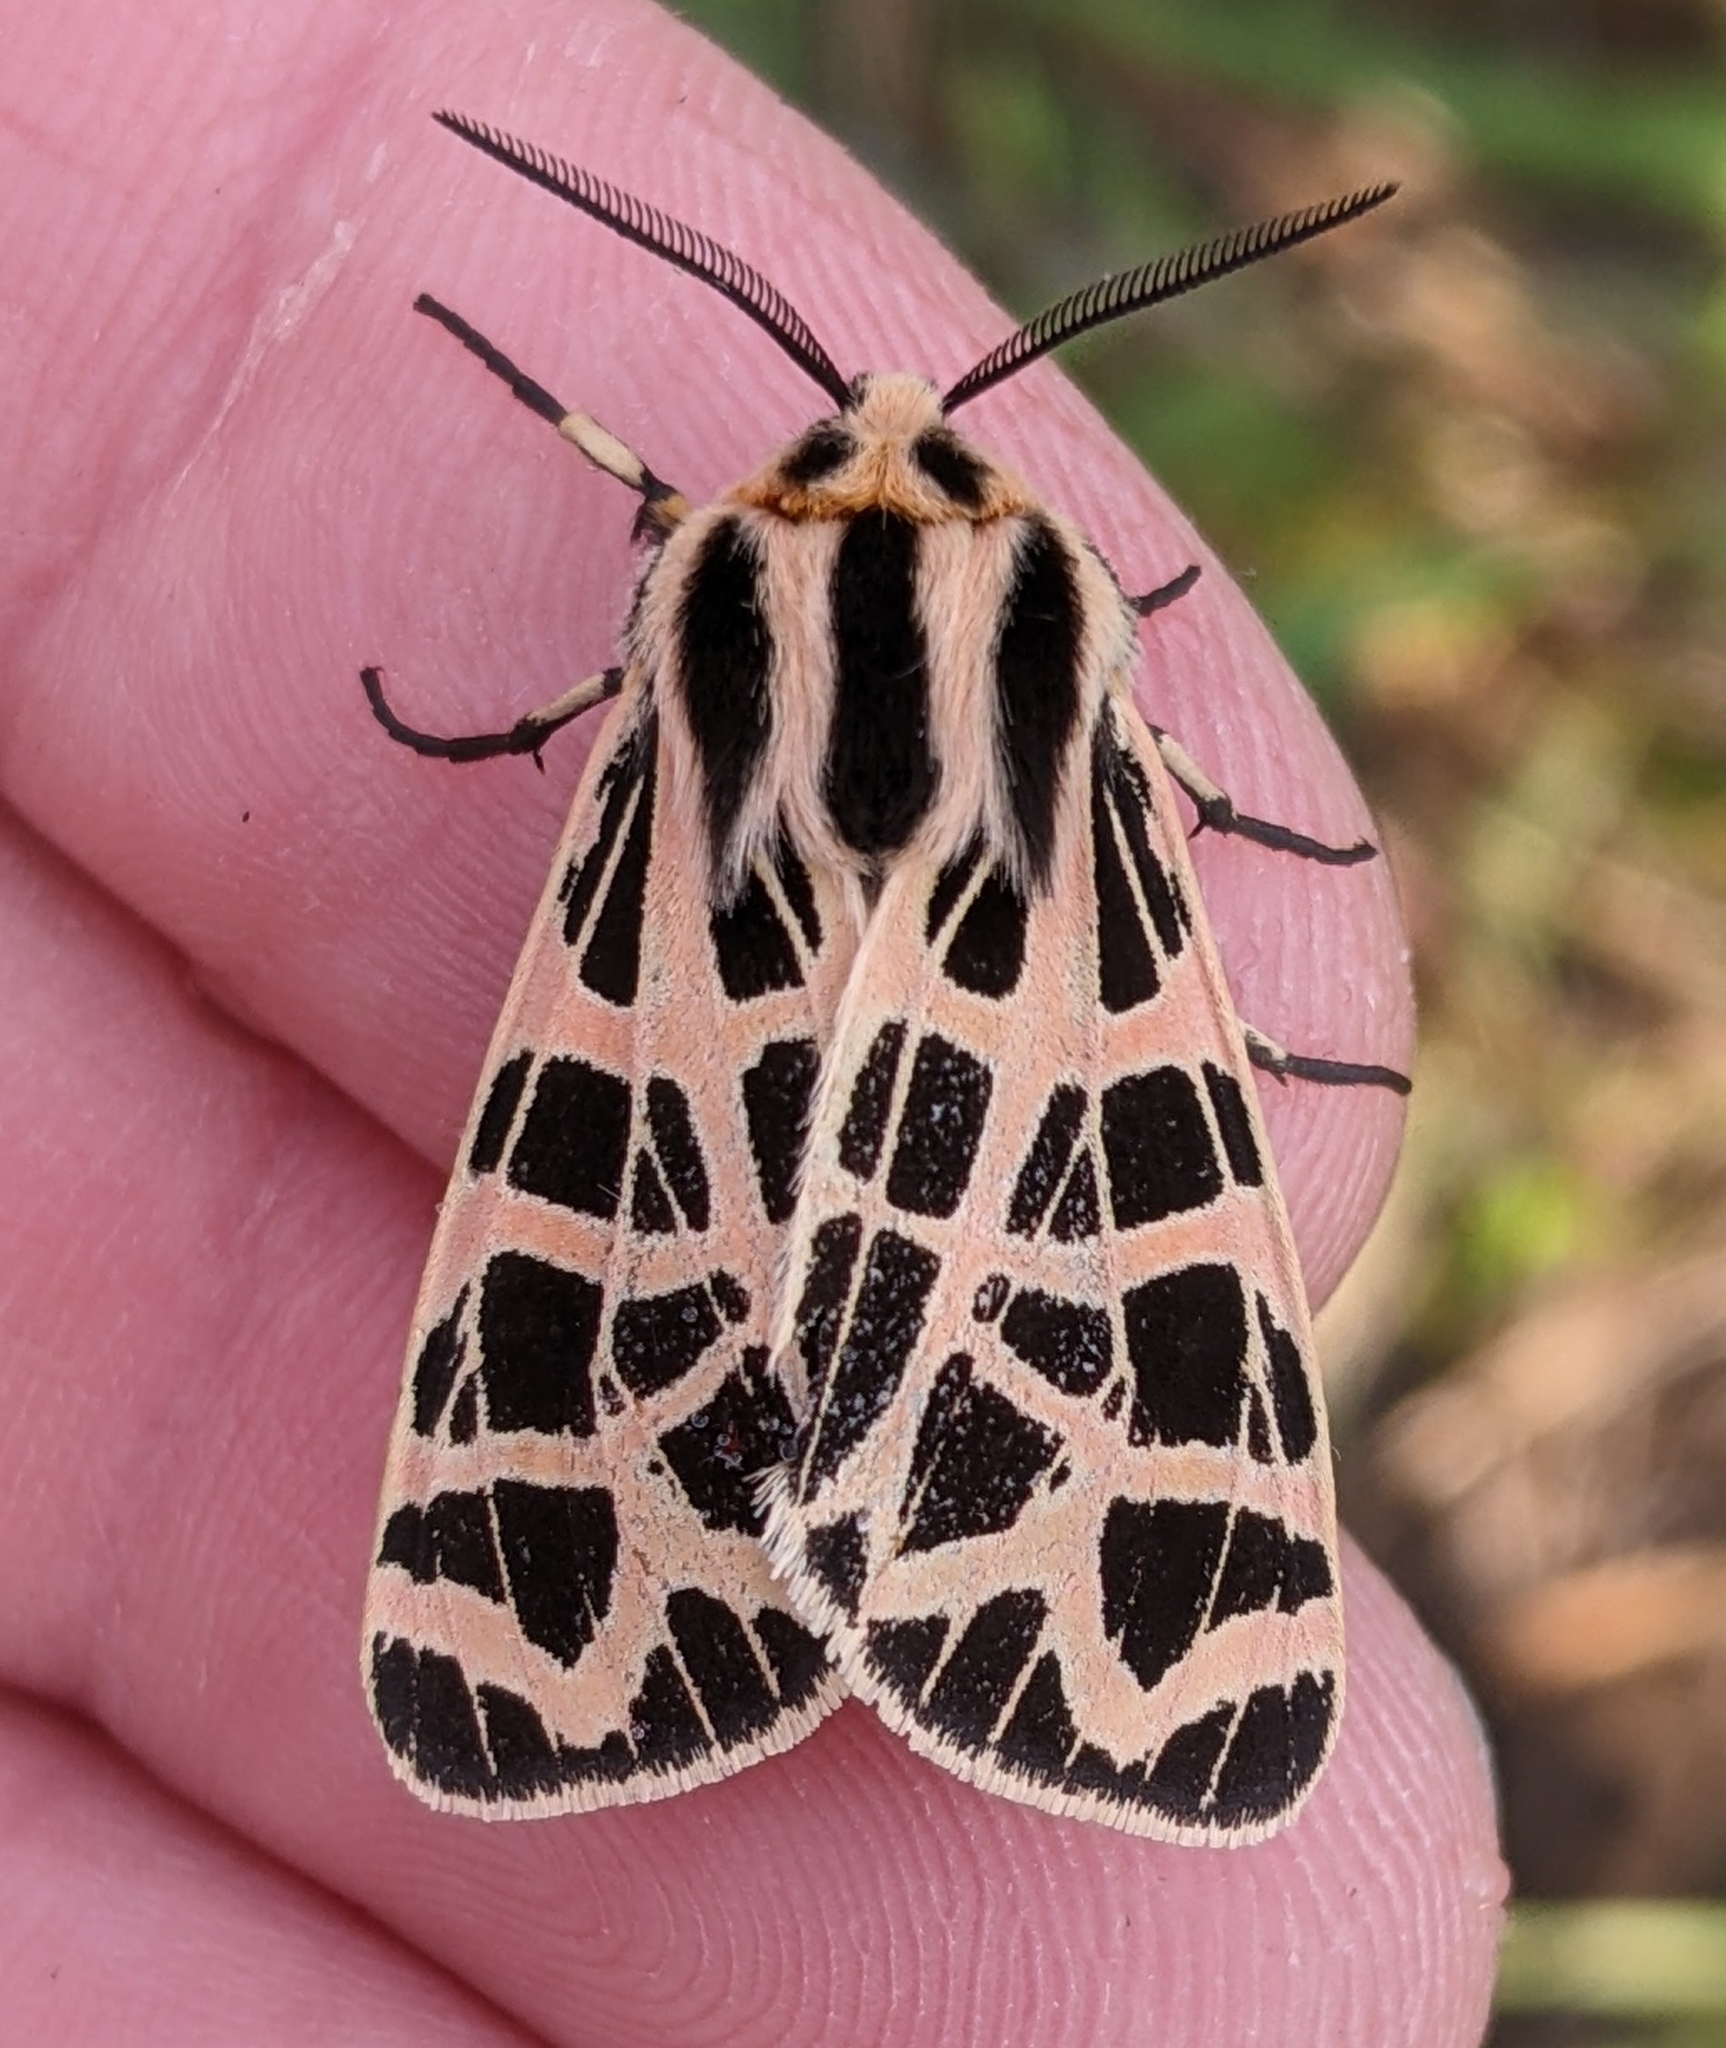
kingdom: Animalia
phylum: Arthropoda
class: Insecta
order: Lepidoptera
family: Erebidae
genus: Apantesis
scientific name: Apantesis
